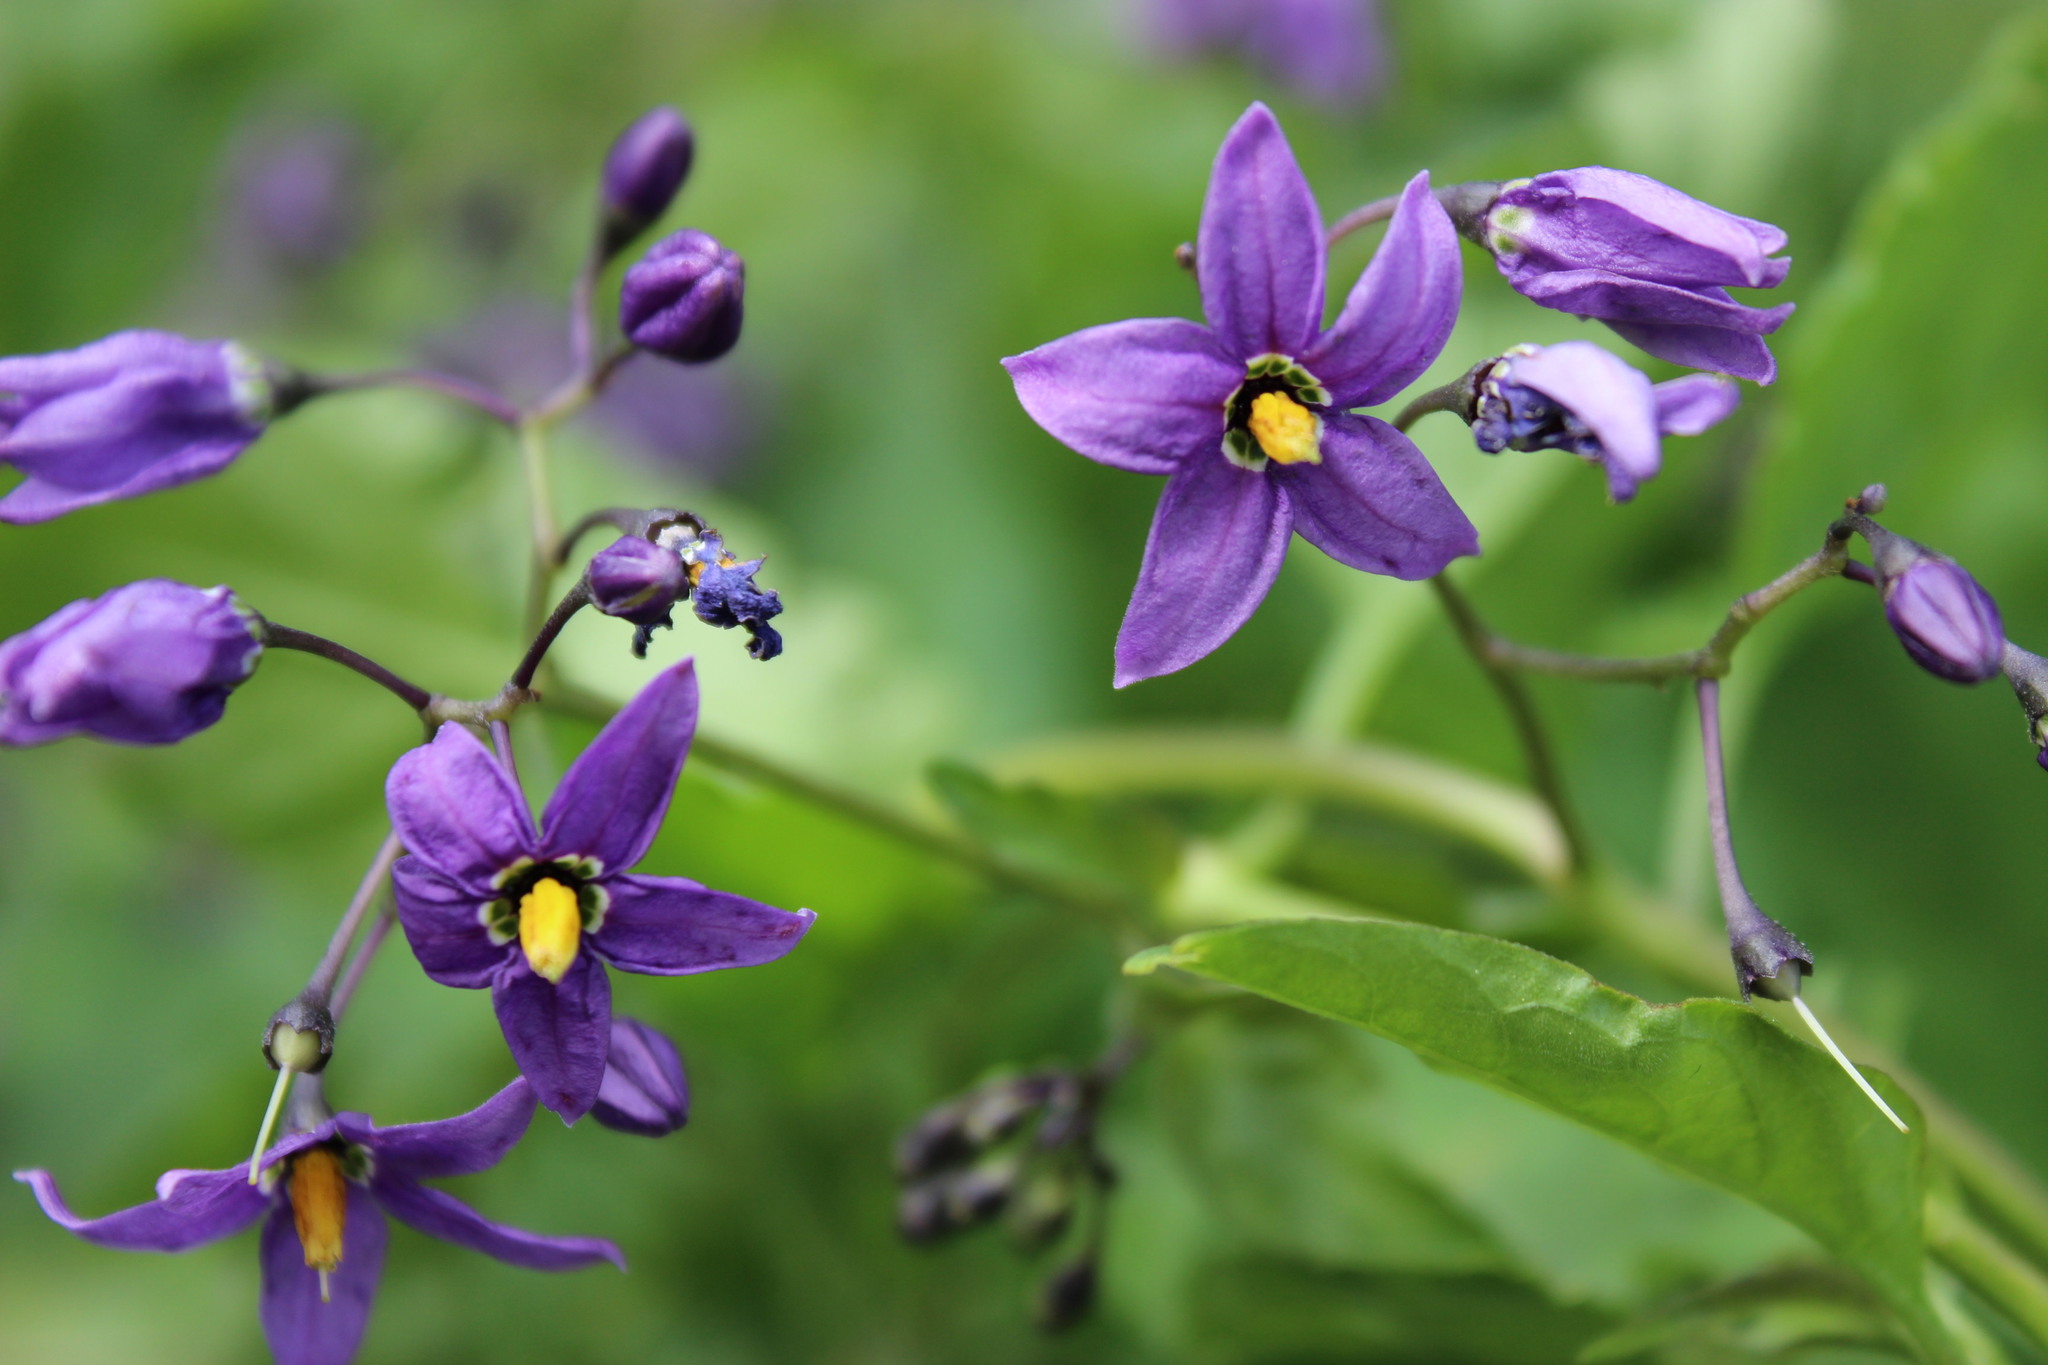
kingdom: Plantae
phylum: Tracheophyta
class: Magnoliopsida
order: Solanales
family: Solanaceae
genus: Solanum
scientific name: Solanum dulcamara
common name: Climbing nightshade
